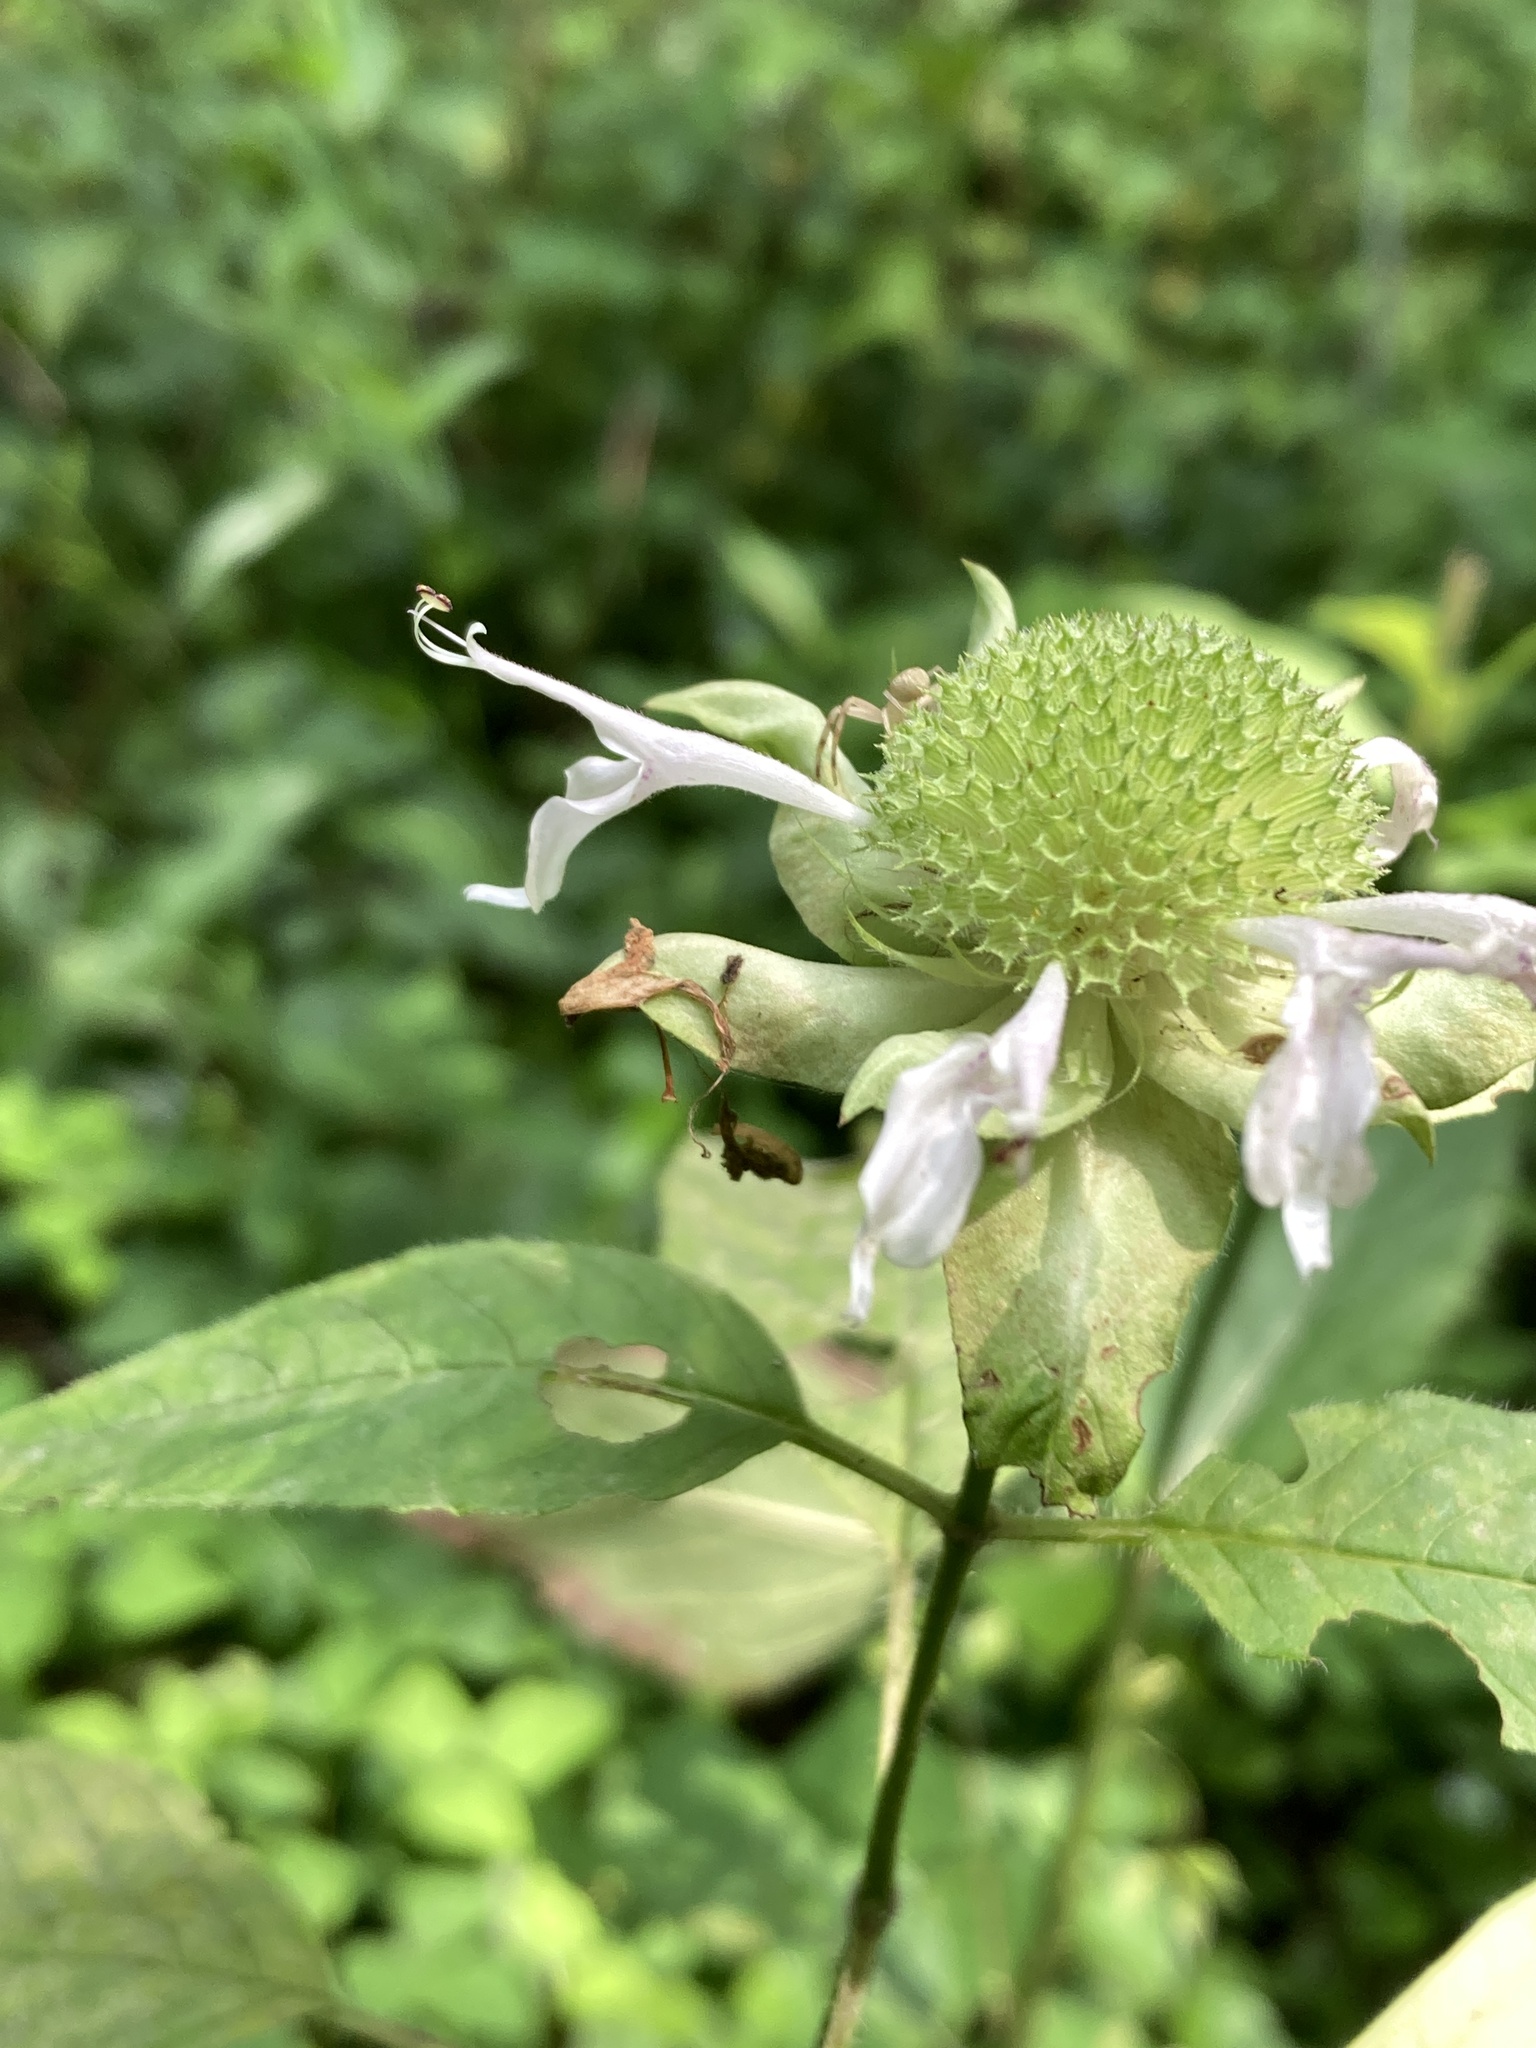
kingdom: Plantae
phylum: Tracheophyta
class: Magnoliopsida
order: Lamiales
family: Lamiaceae
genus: Monarda
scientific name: Monarda clinopodia
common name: Basil beebalm
